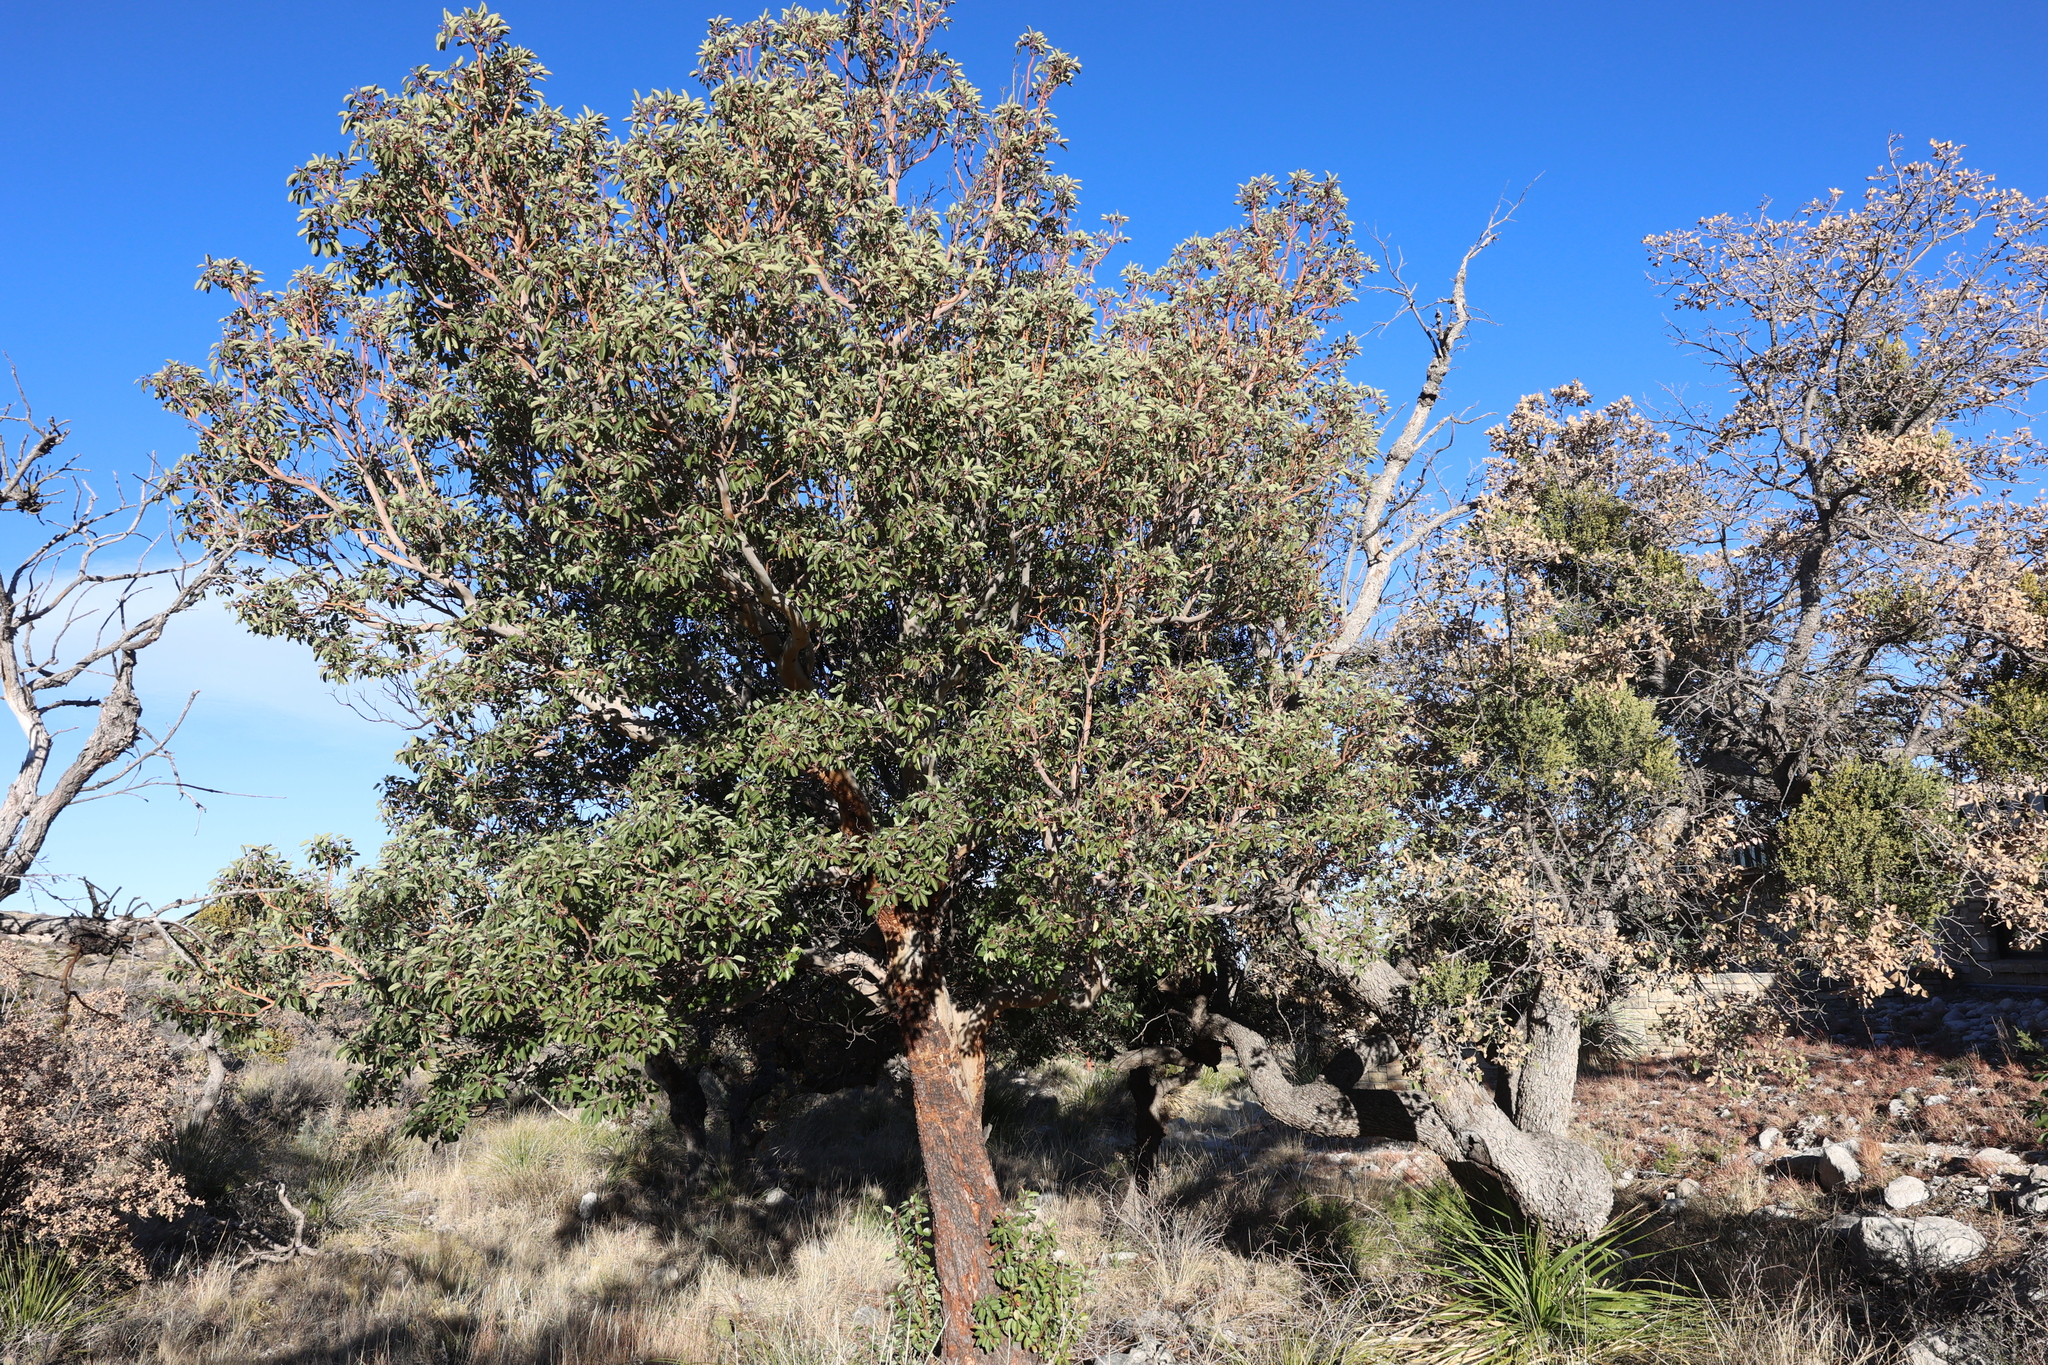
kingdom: Plantae
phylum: Tracheophyta
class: Magnoliopsida
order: Ericales
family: Ericaceae
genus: Arbutus
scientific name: Arbutus xalapensis
